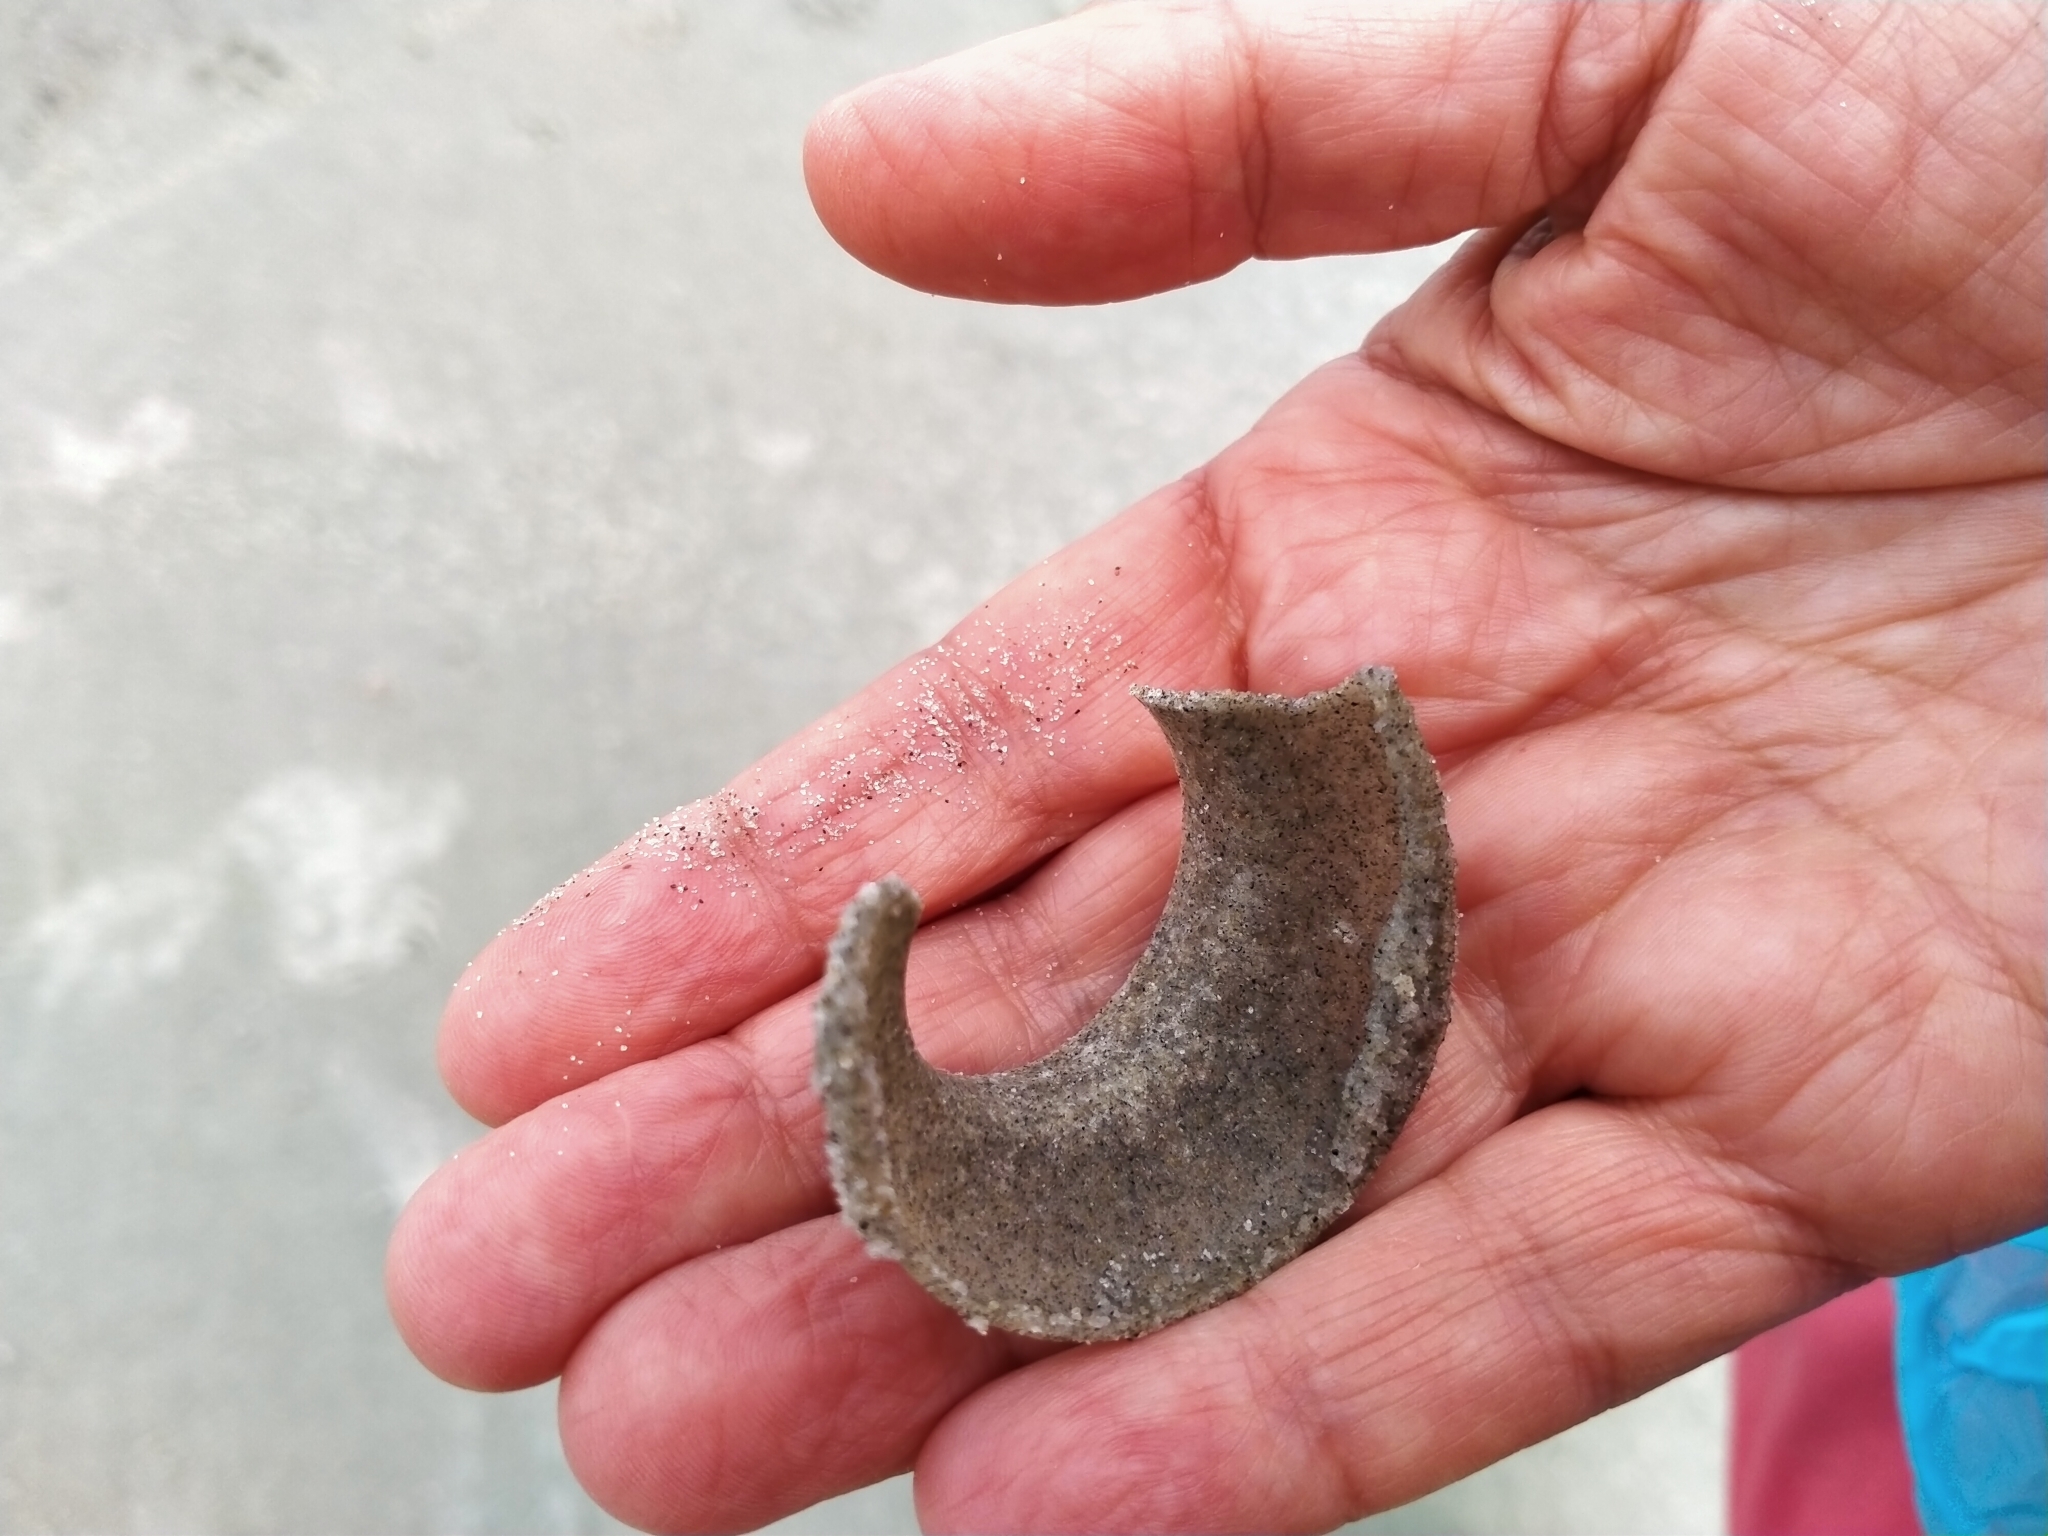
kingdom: Animalia
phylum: Mollusca
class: Gastropoda
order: Littorinimorpha
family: Naticidae
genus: Tanea
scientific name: Tanea zelandica
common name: New zealand moonsnail
